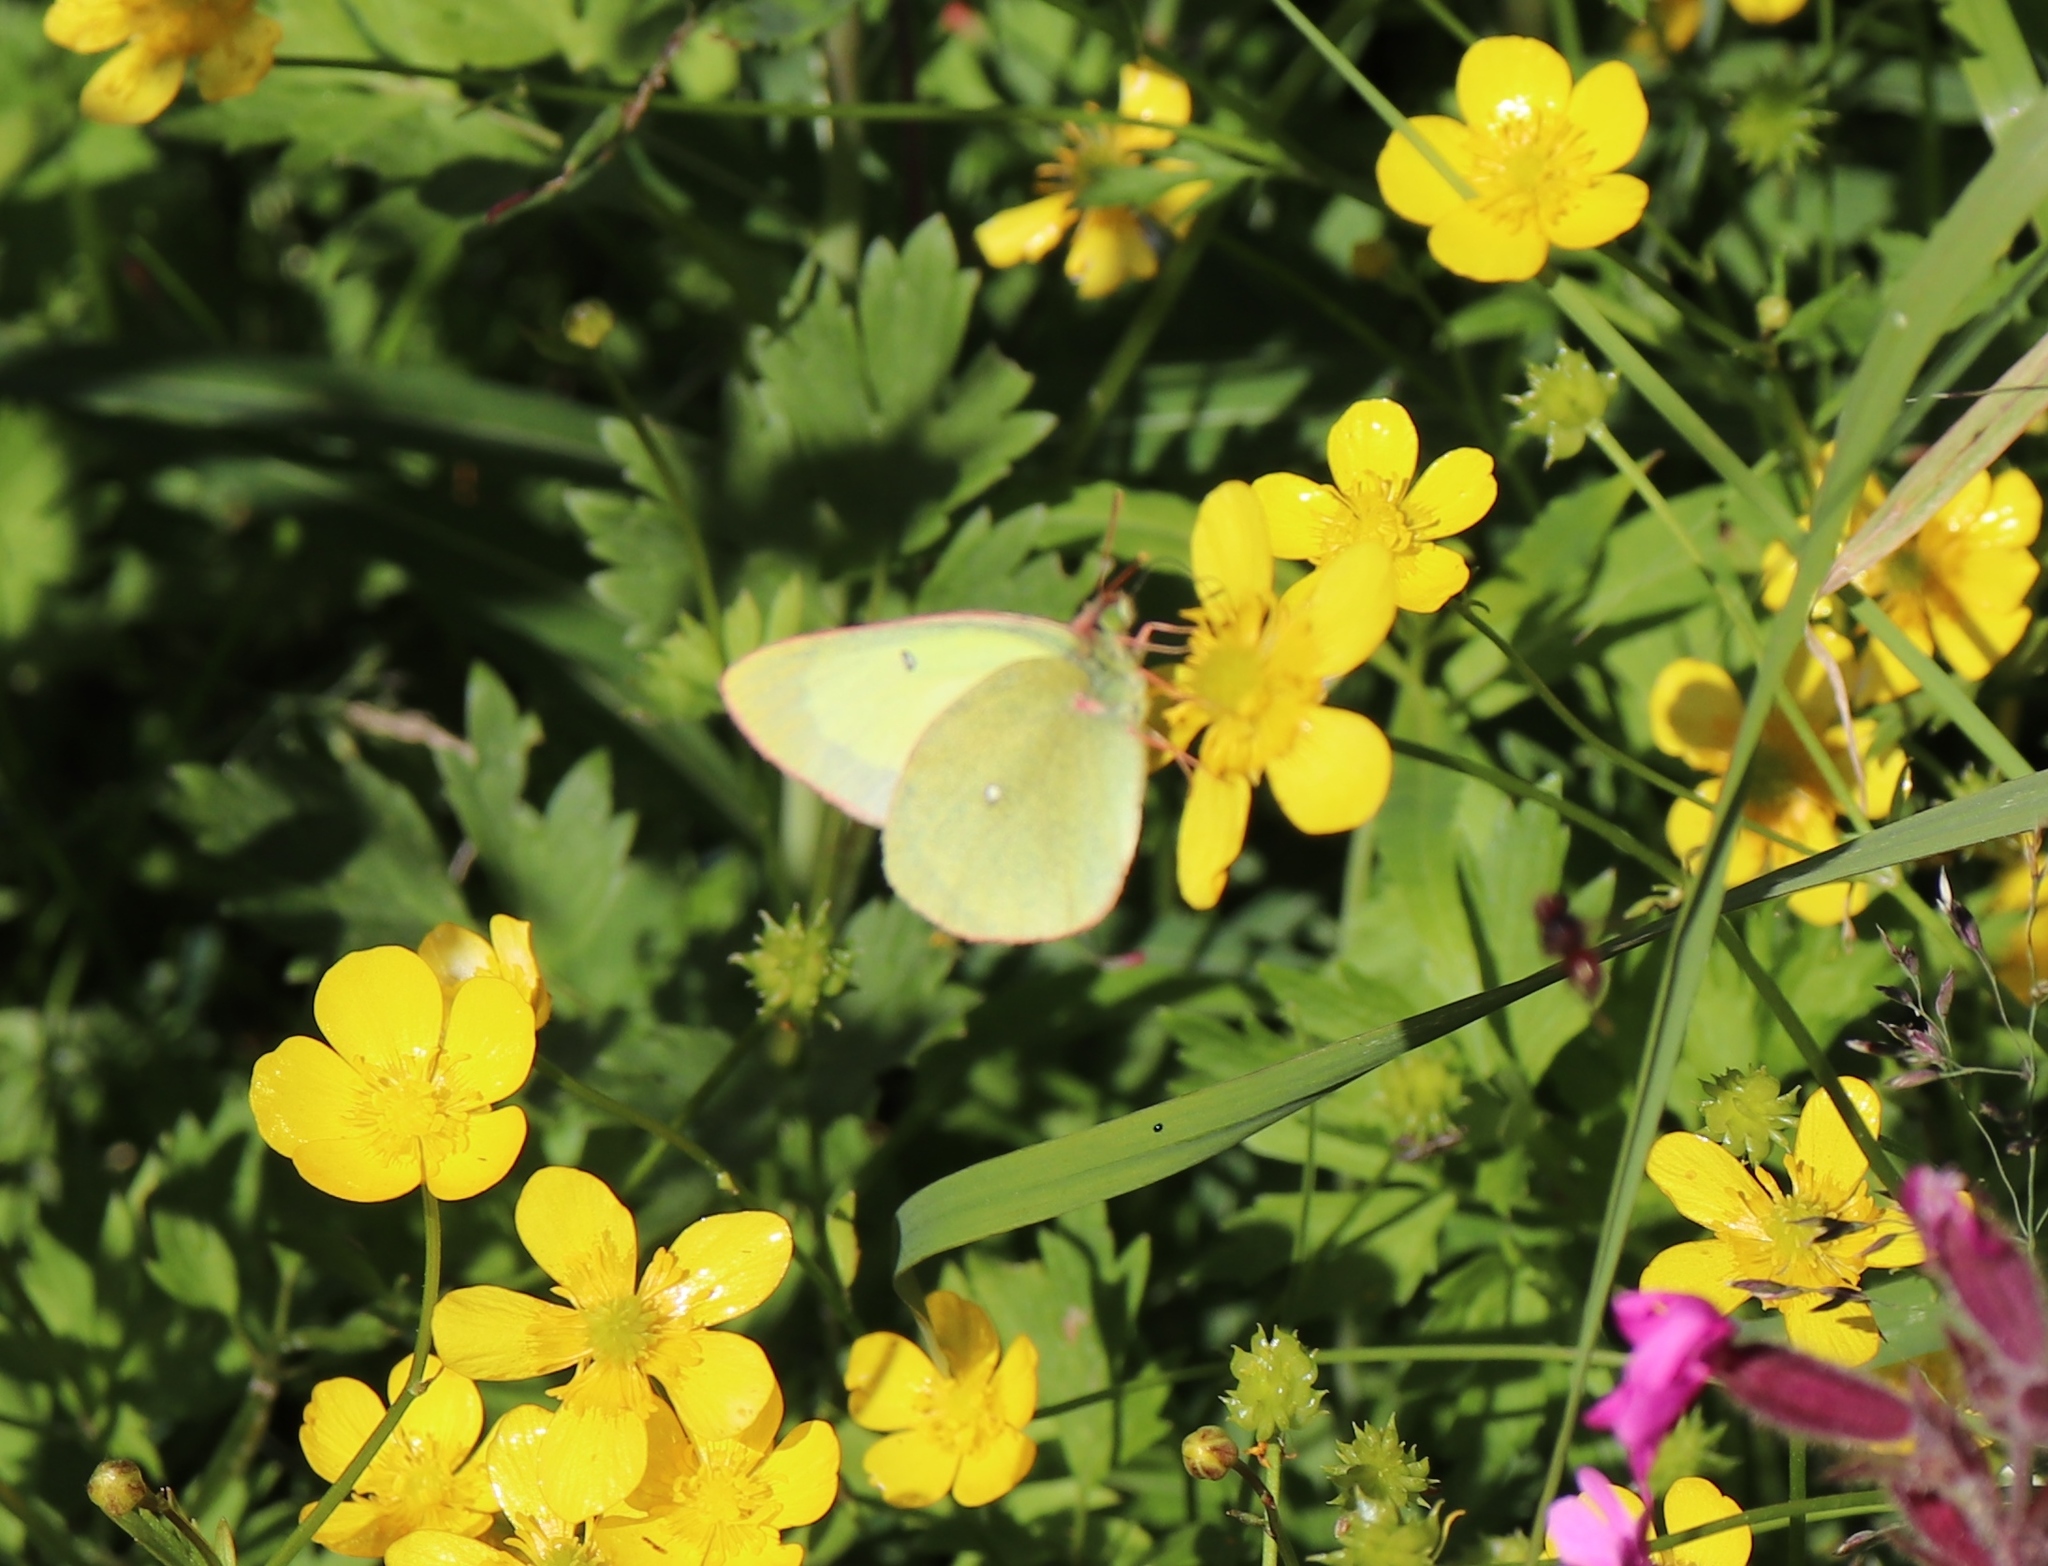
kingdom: Animalia
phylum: Arthropoda
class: Insecta
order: Lepidoptera
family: Pieridae
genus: Colias
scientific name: Colias palaeno
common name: Moorland clouded yellow
